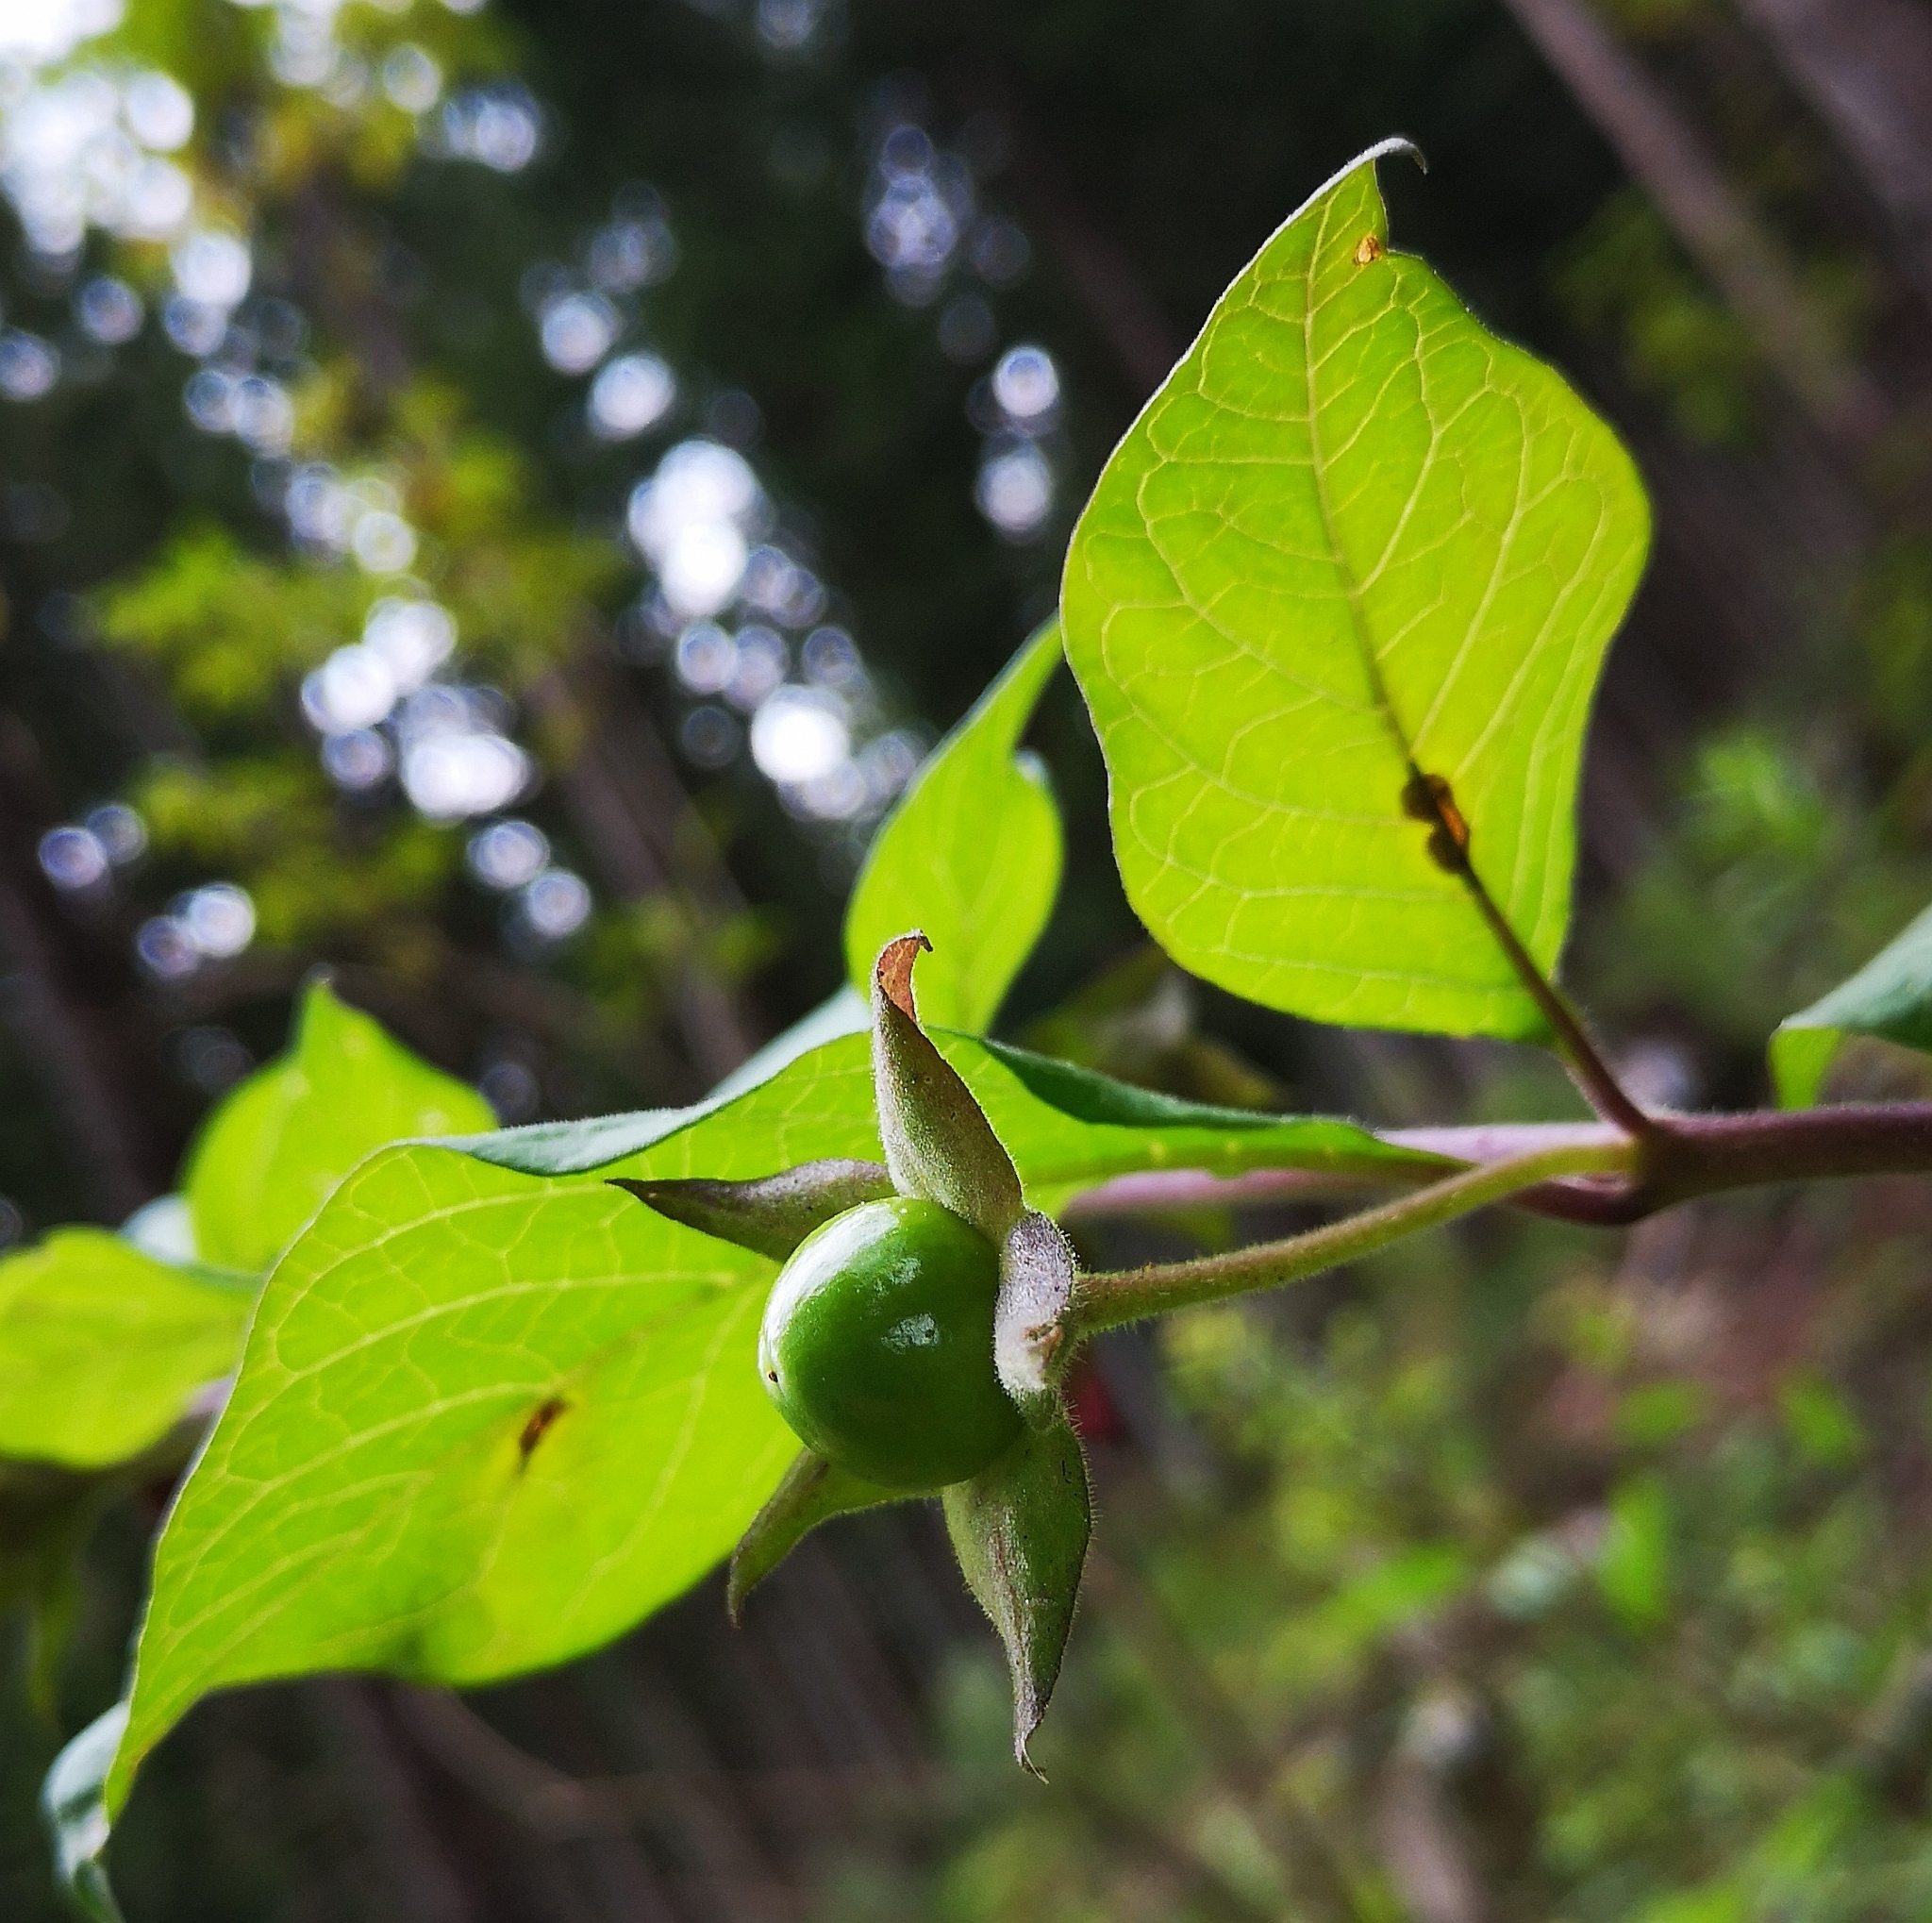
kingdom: Plantae
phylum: Tracheophyta
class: Magnoliopsida
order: Solanales
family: Solanaceae
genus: Atropa
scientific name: Atropa belladonna
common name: Deadly nightshade
